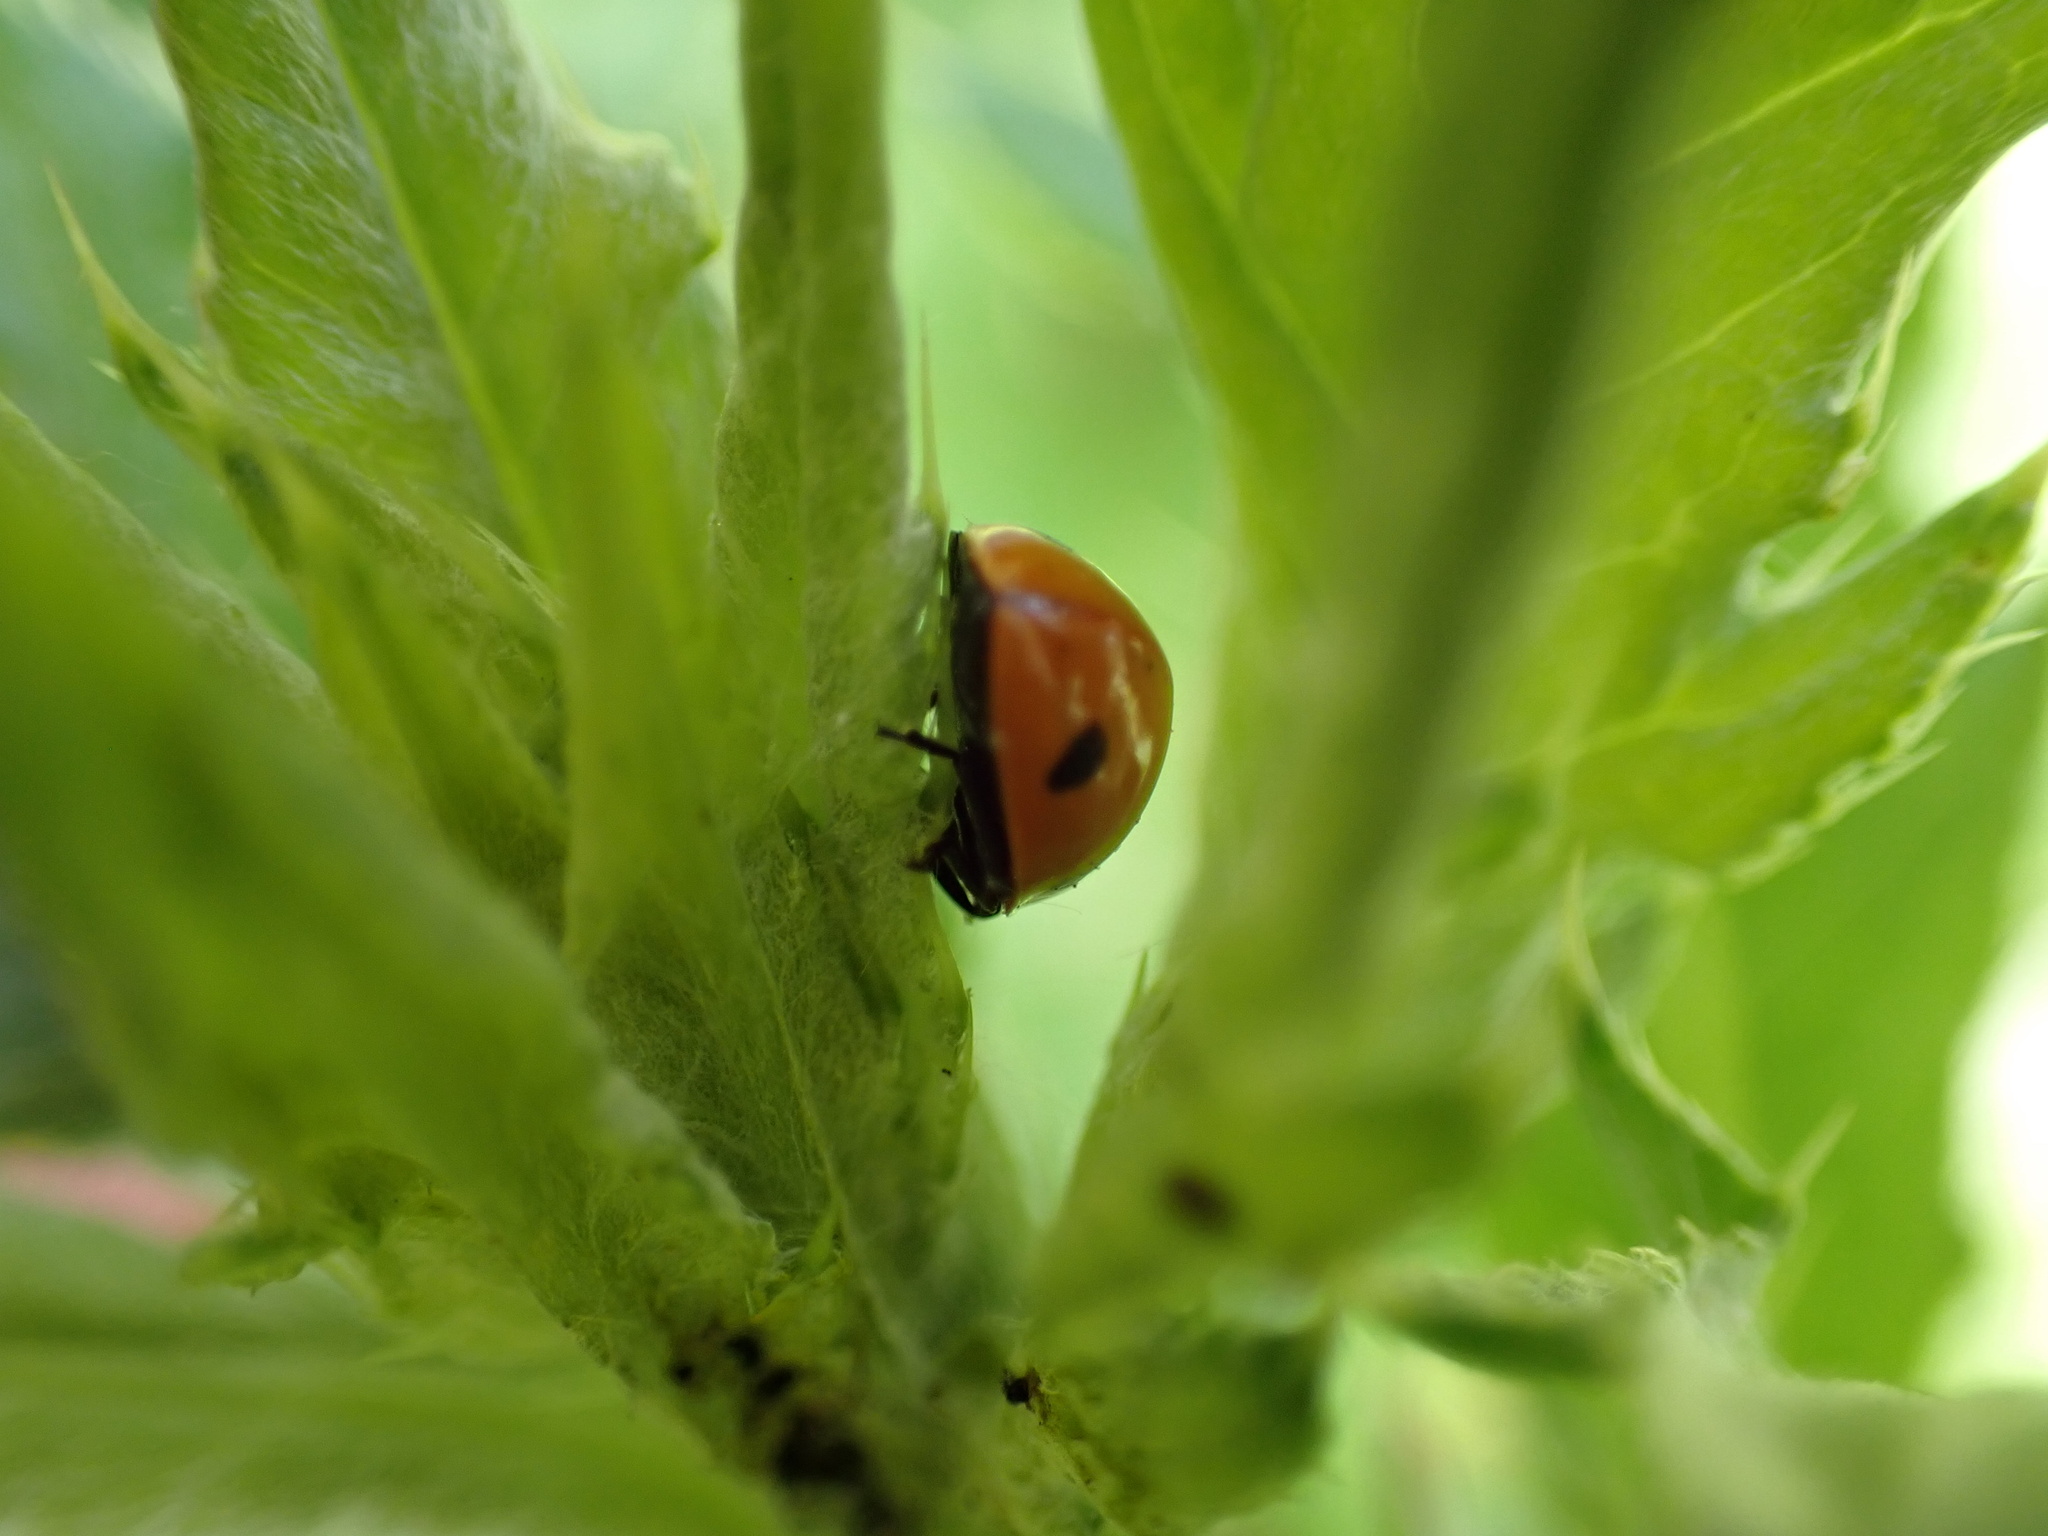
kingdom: Animalia
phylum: Arthropoda
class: Insecta
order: Coleoptera
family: Coccinellidae
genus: Coccinella
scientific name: Coccinella septempunctata
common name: Sevenspotted lady beetle
